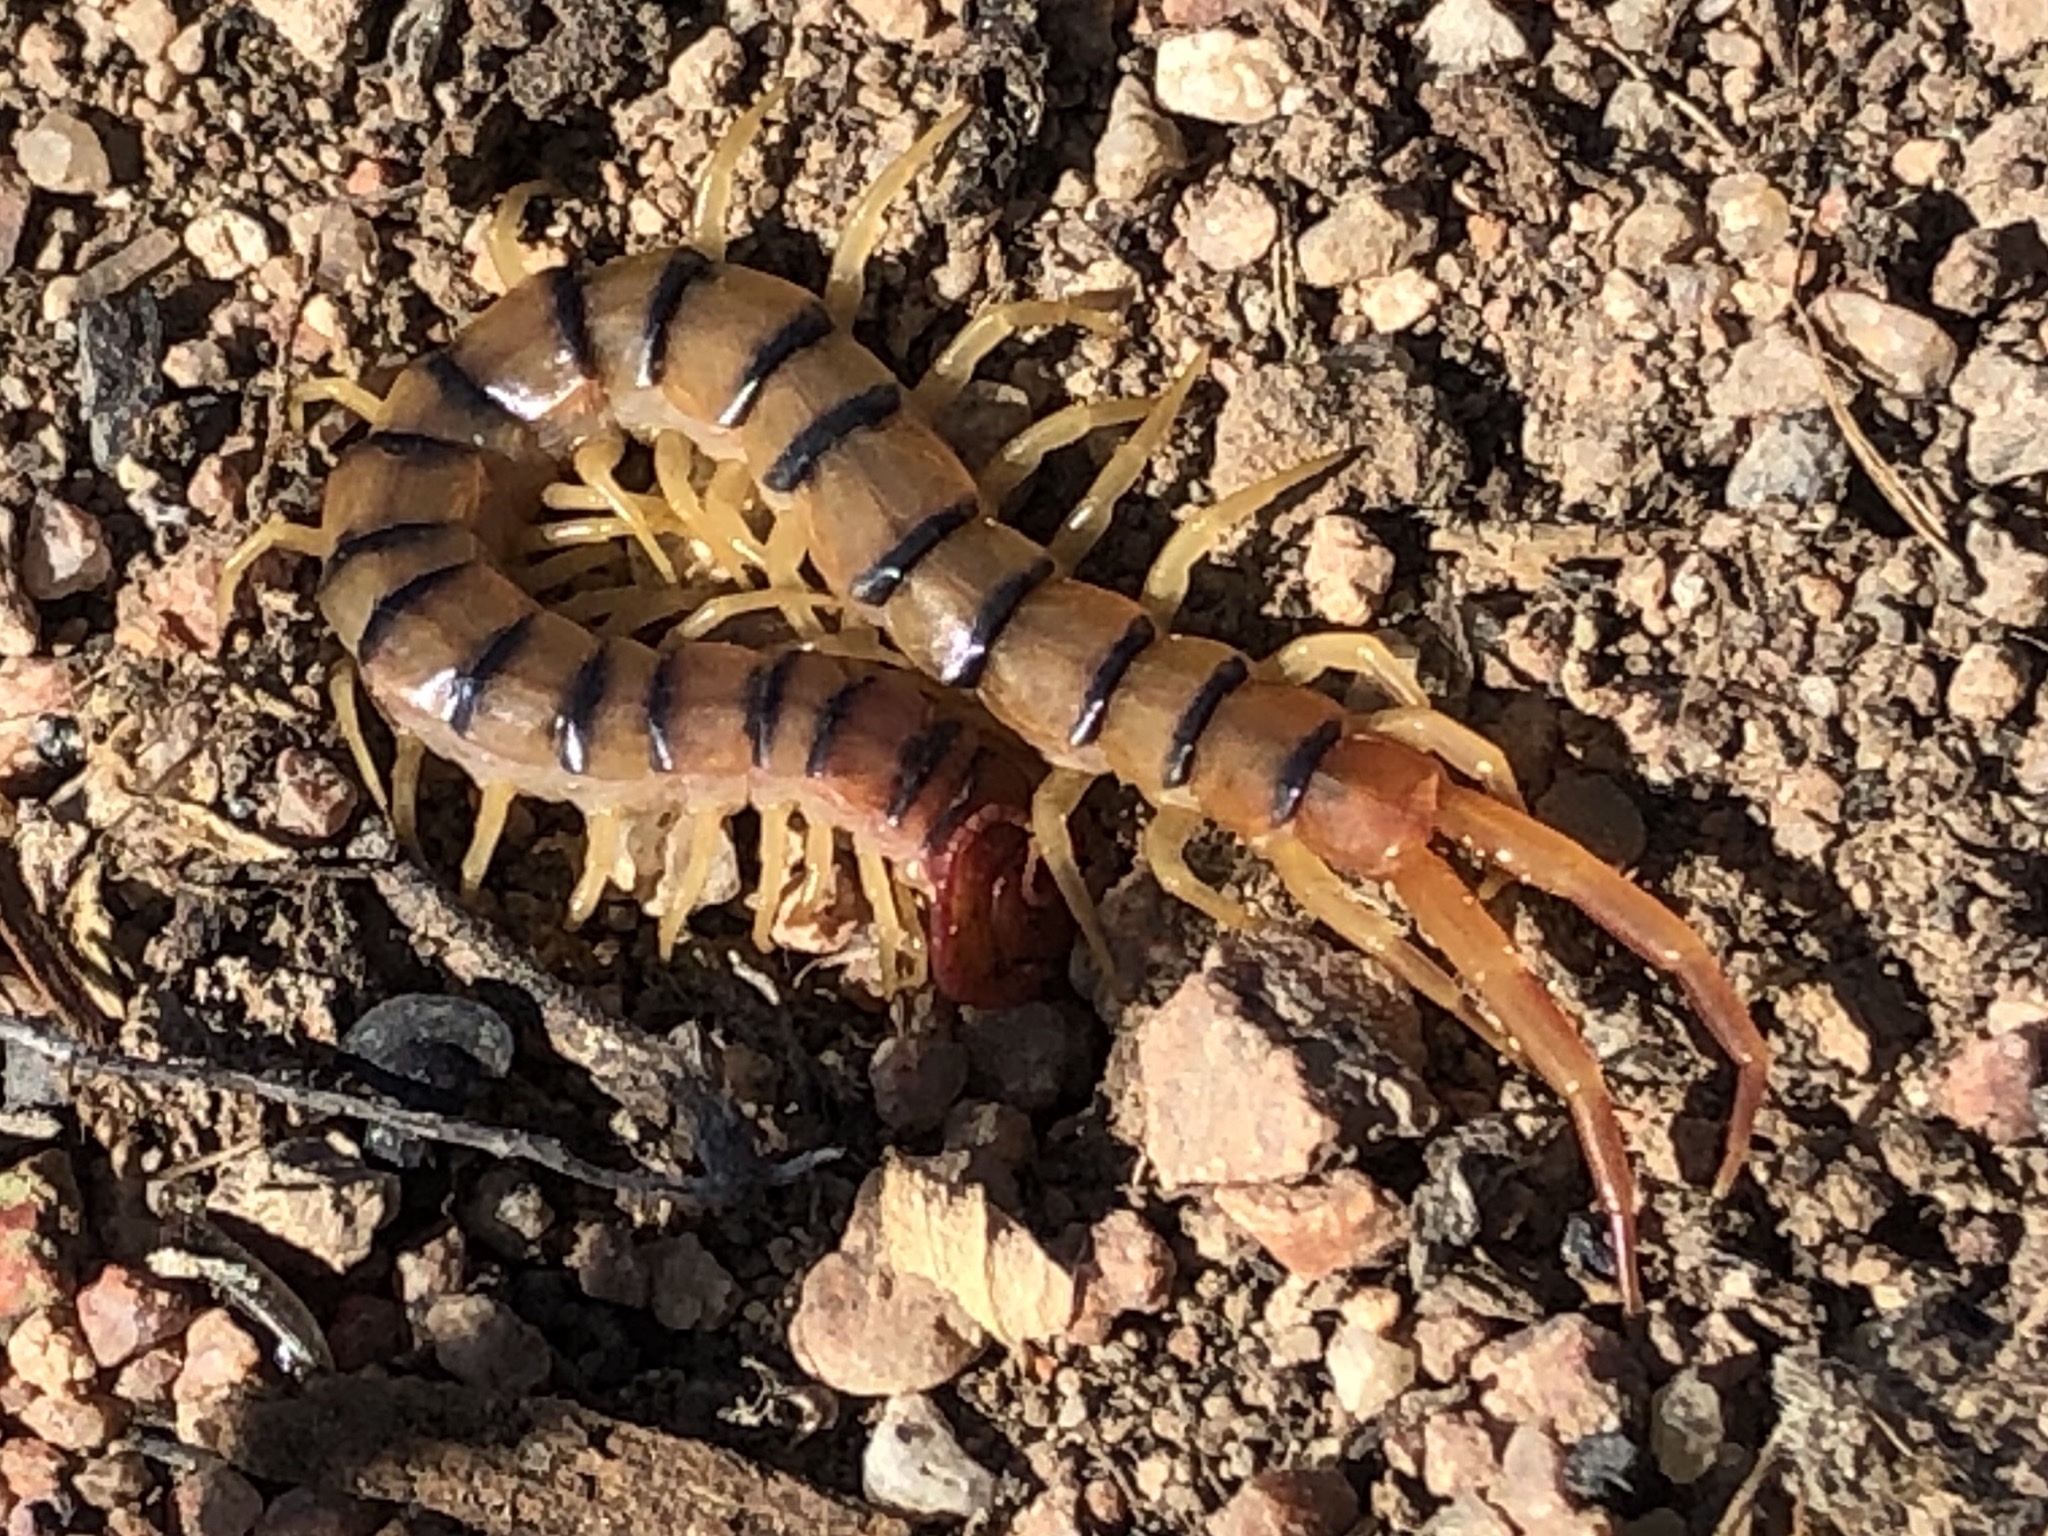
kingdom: Animalia
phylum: Arthropoda
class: Chilopoda
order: Scolopendromorpha
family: Scolopendridae
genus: Scolopendra
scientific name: Scolopendra polymorpha
